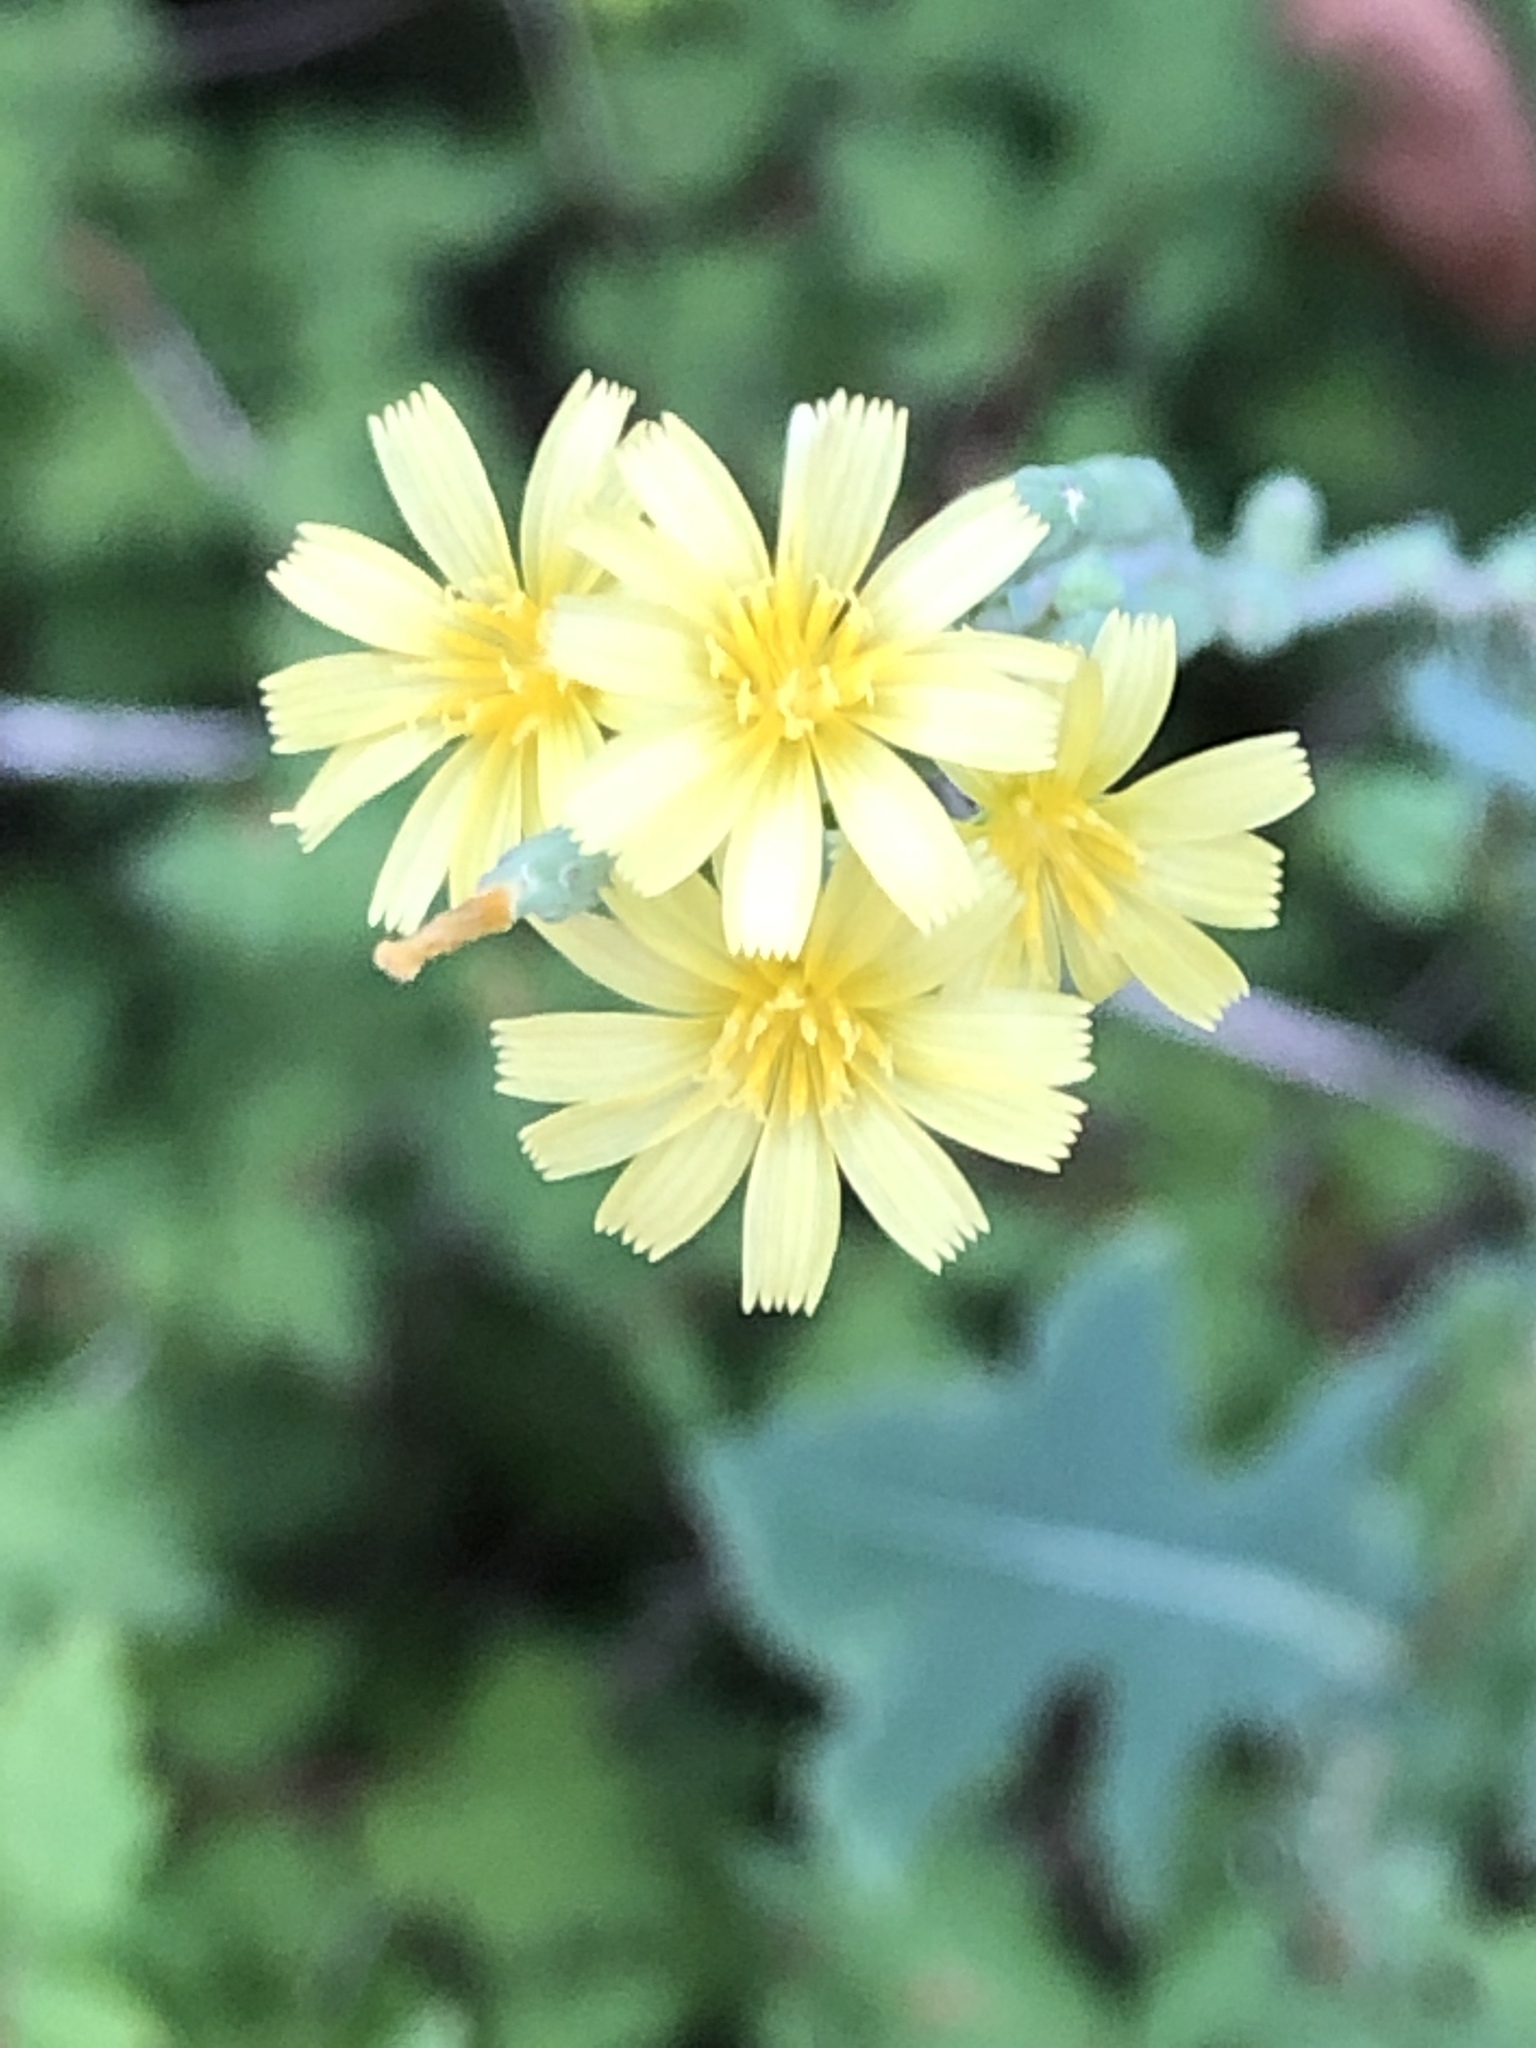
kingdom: Plantae
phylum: Tracheophyta
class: Magnoliopsida
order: Asterales
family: Asteraceae
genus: Lactuca
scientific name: Lactuca serriola
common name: Prickly lettuce
